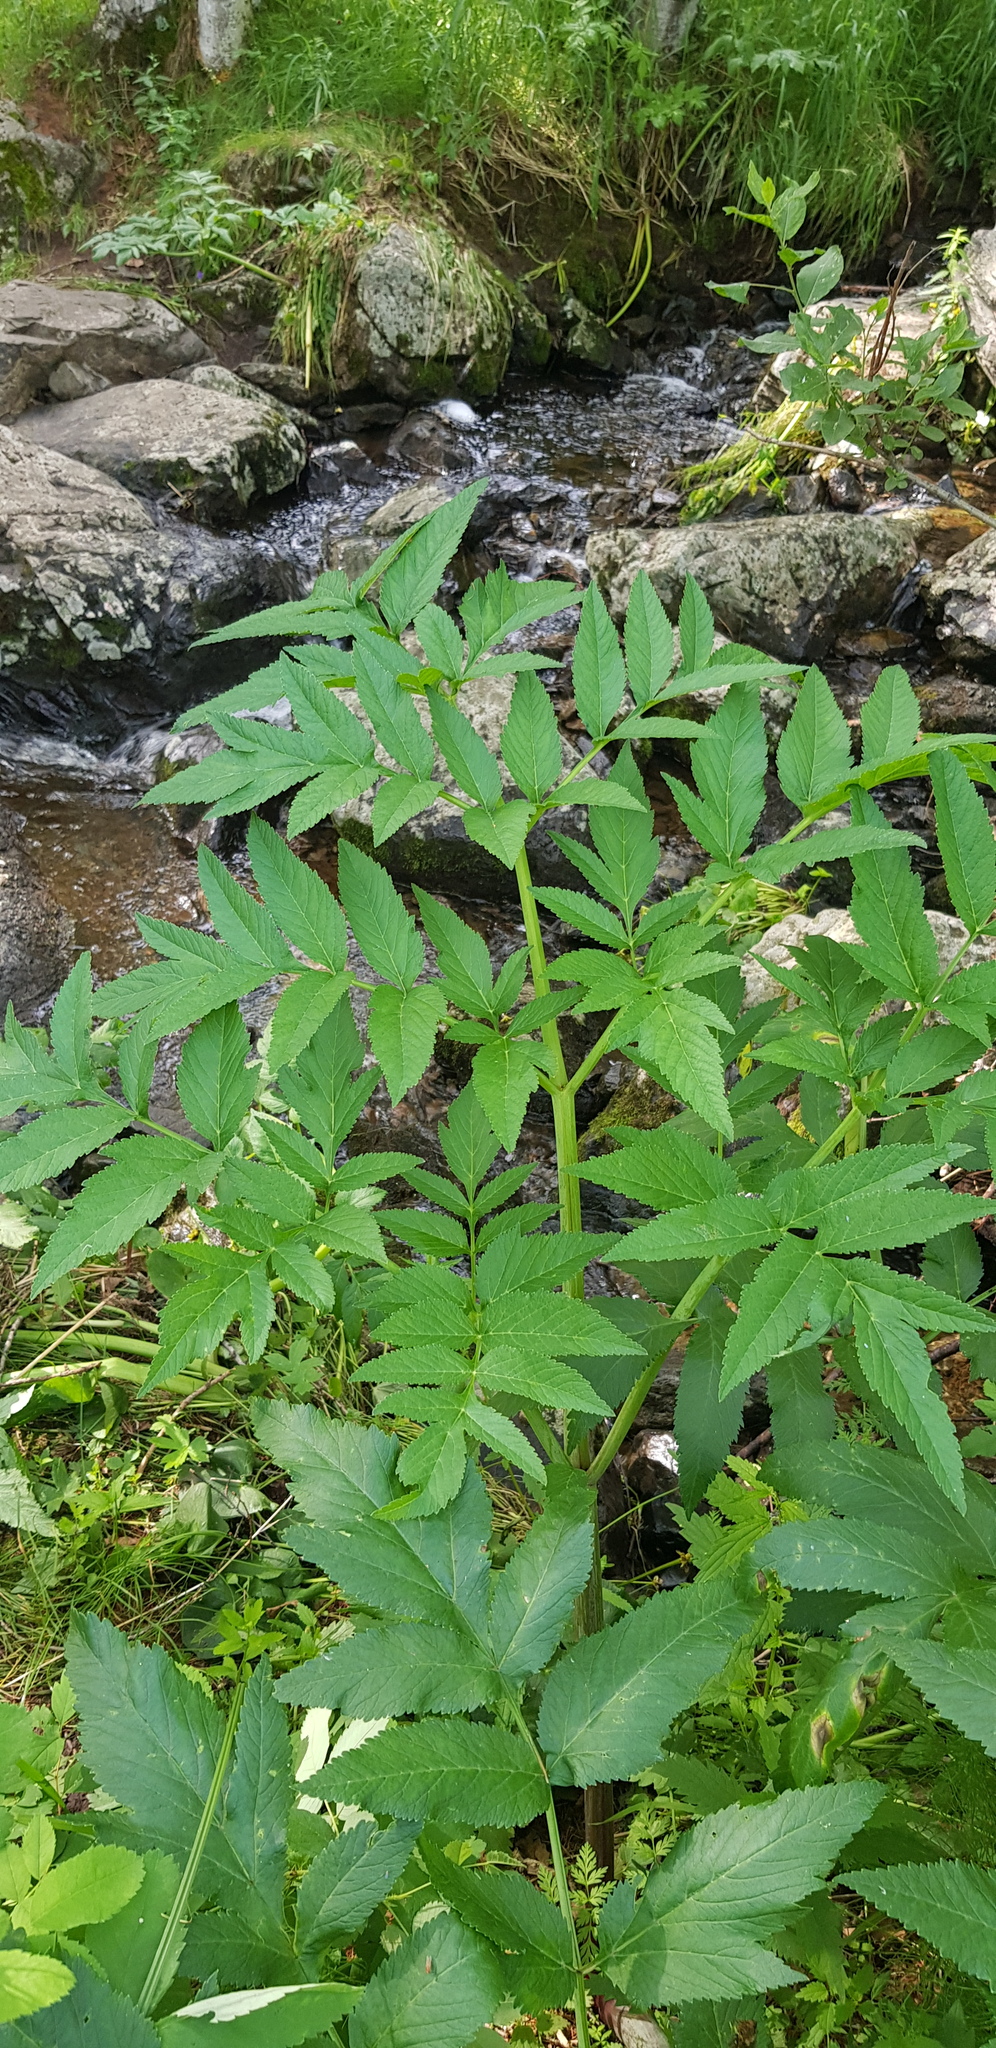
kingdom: Plantae
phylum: Tracheophyta
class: Magnoliopsida
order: Apiales
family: Apiaceae
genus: Angelica
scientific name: Angelica dahurica
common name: Dahurian angelica
